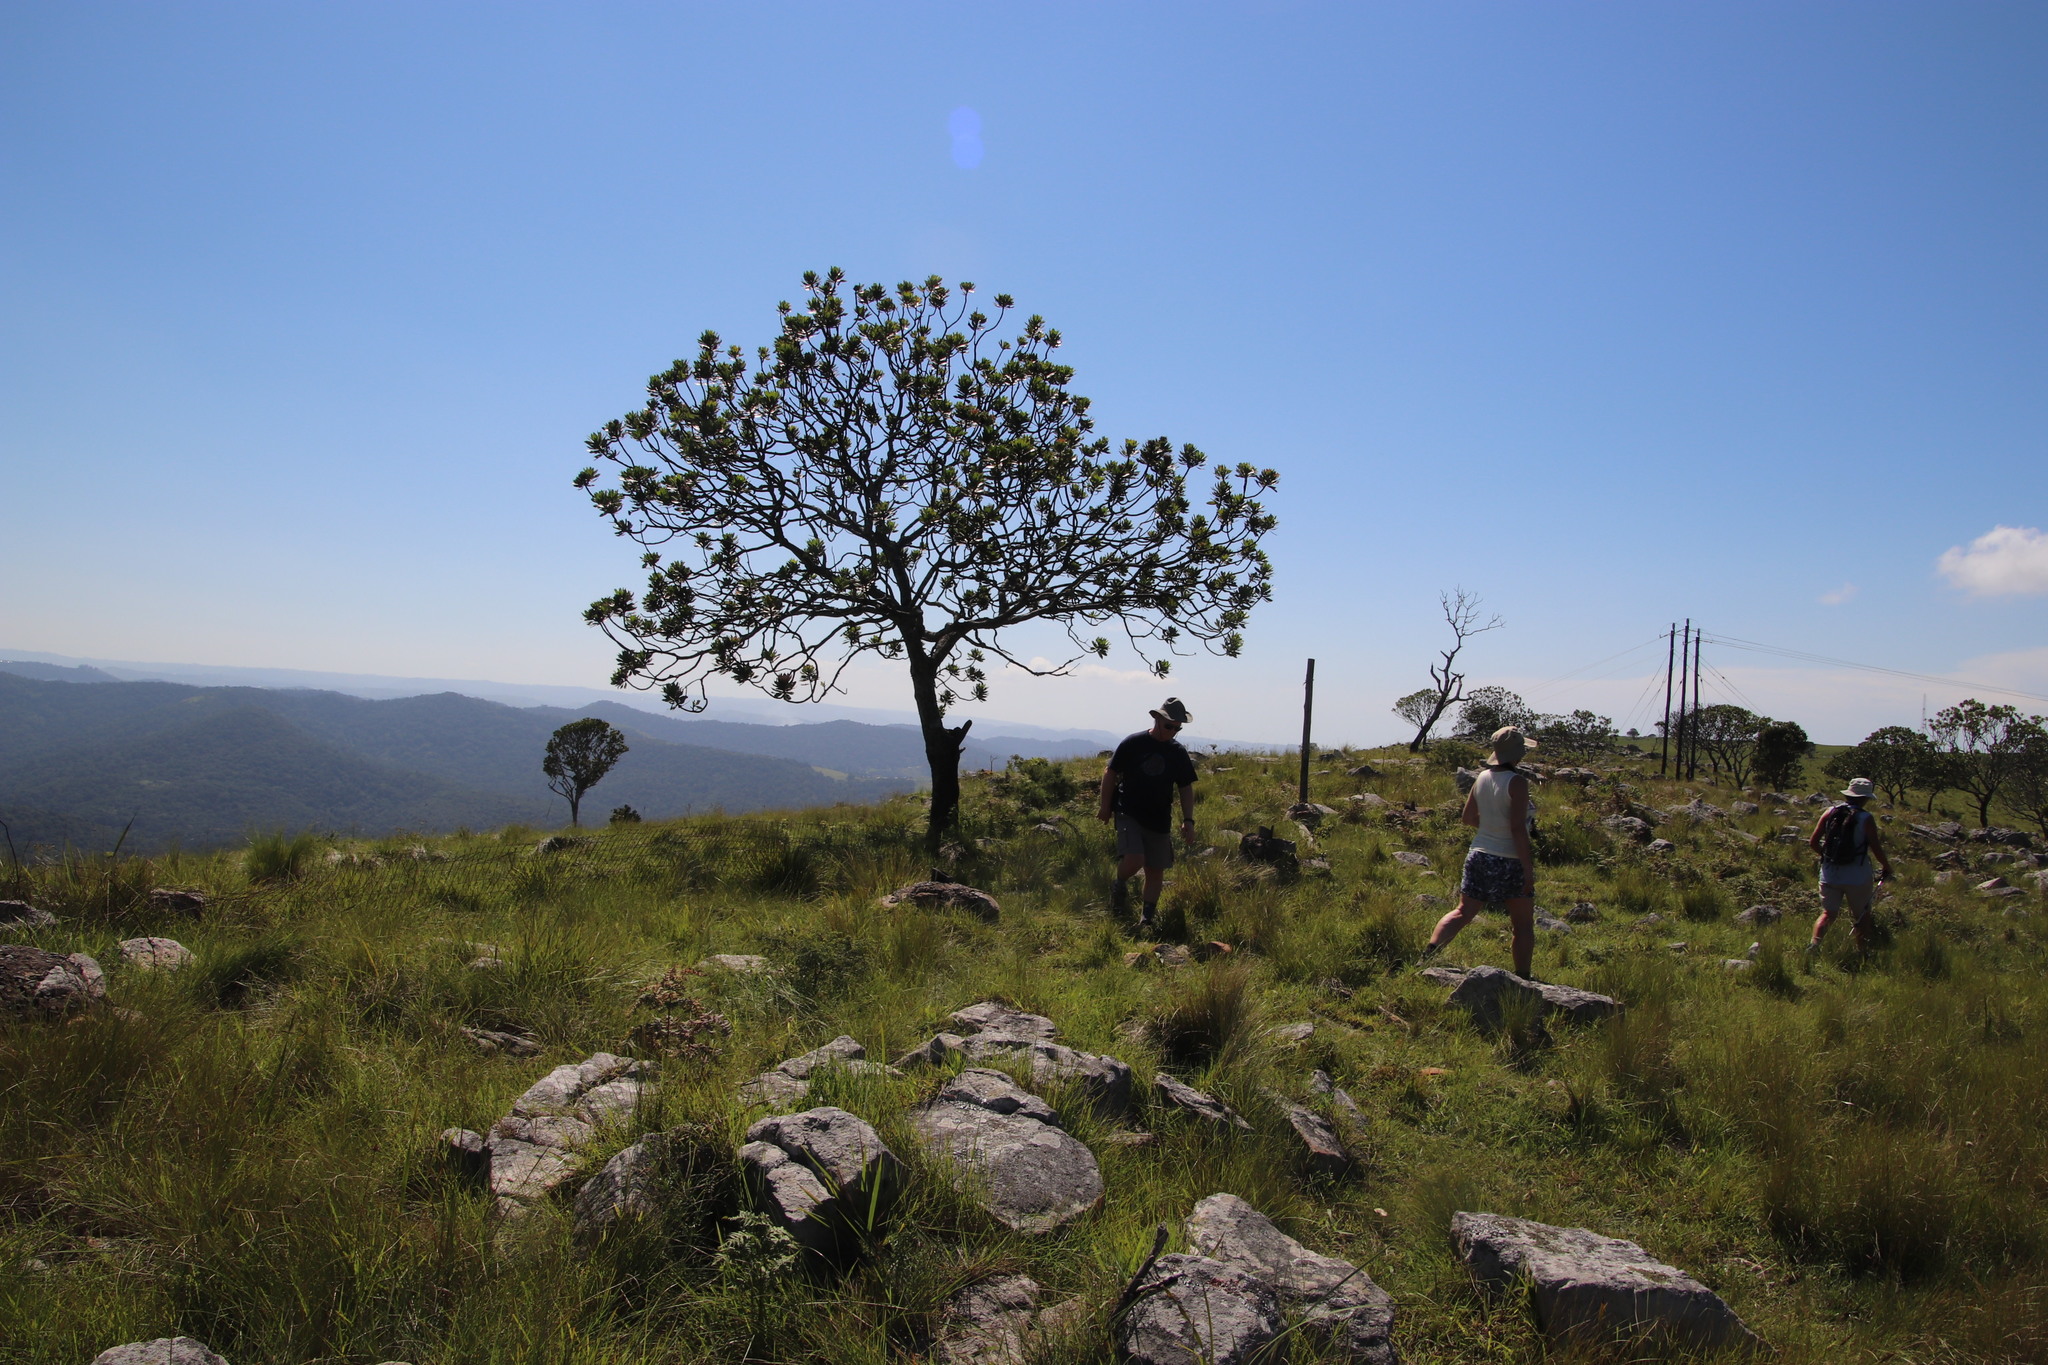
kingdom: Plantae
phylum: Tracheophyta
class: Magnoliopsida
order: Proteales
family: Proteaceae
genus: Protea
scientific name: Protea roupelliae
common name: Silver sugarbush
